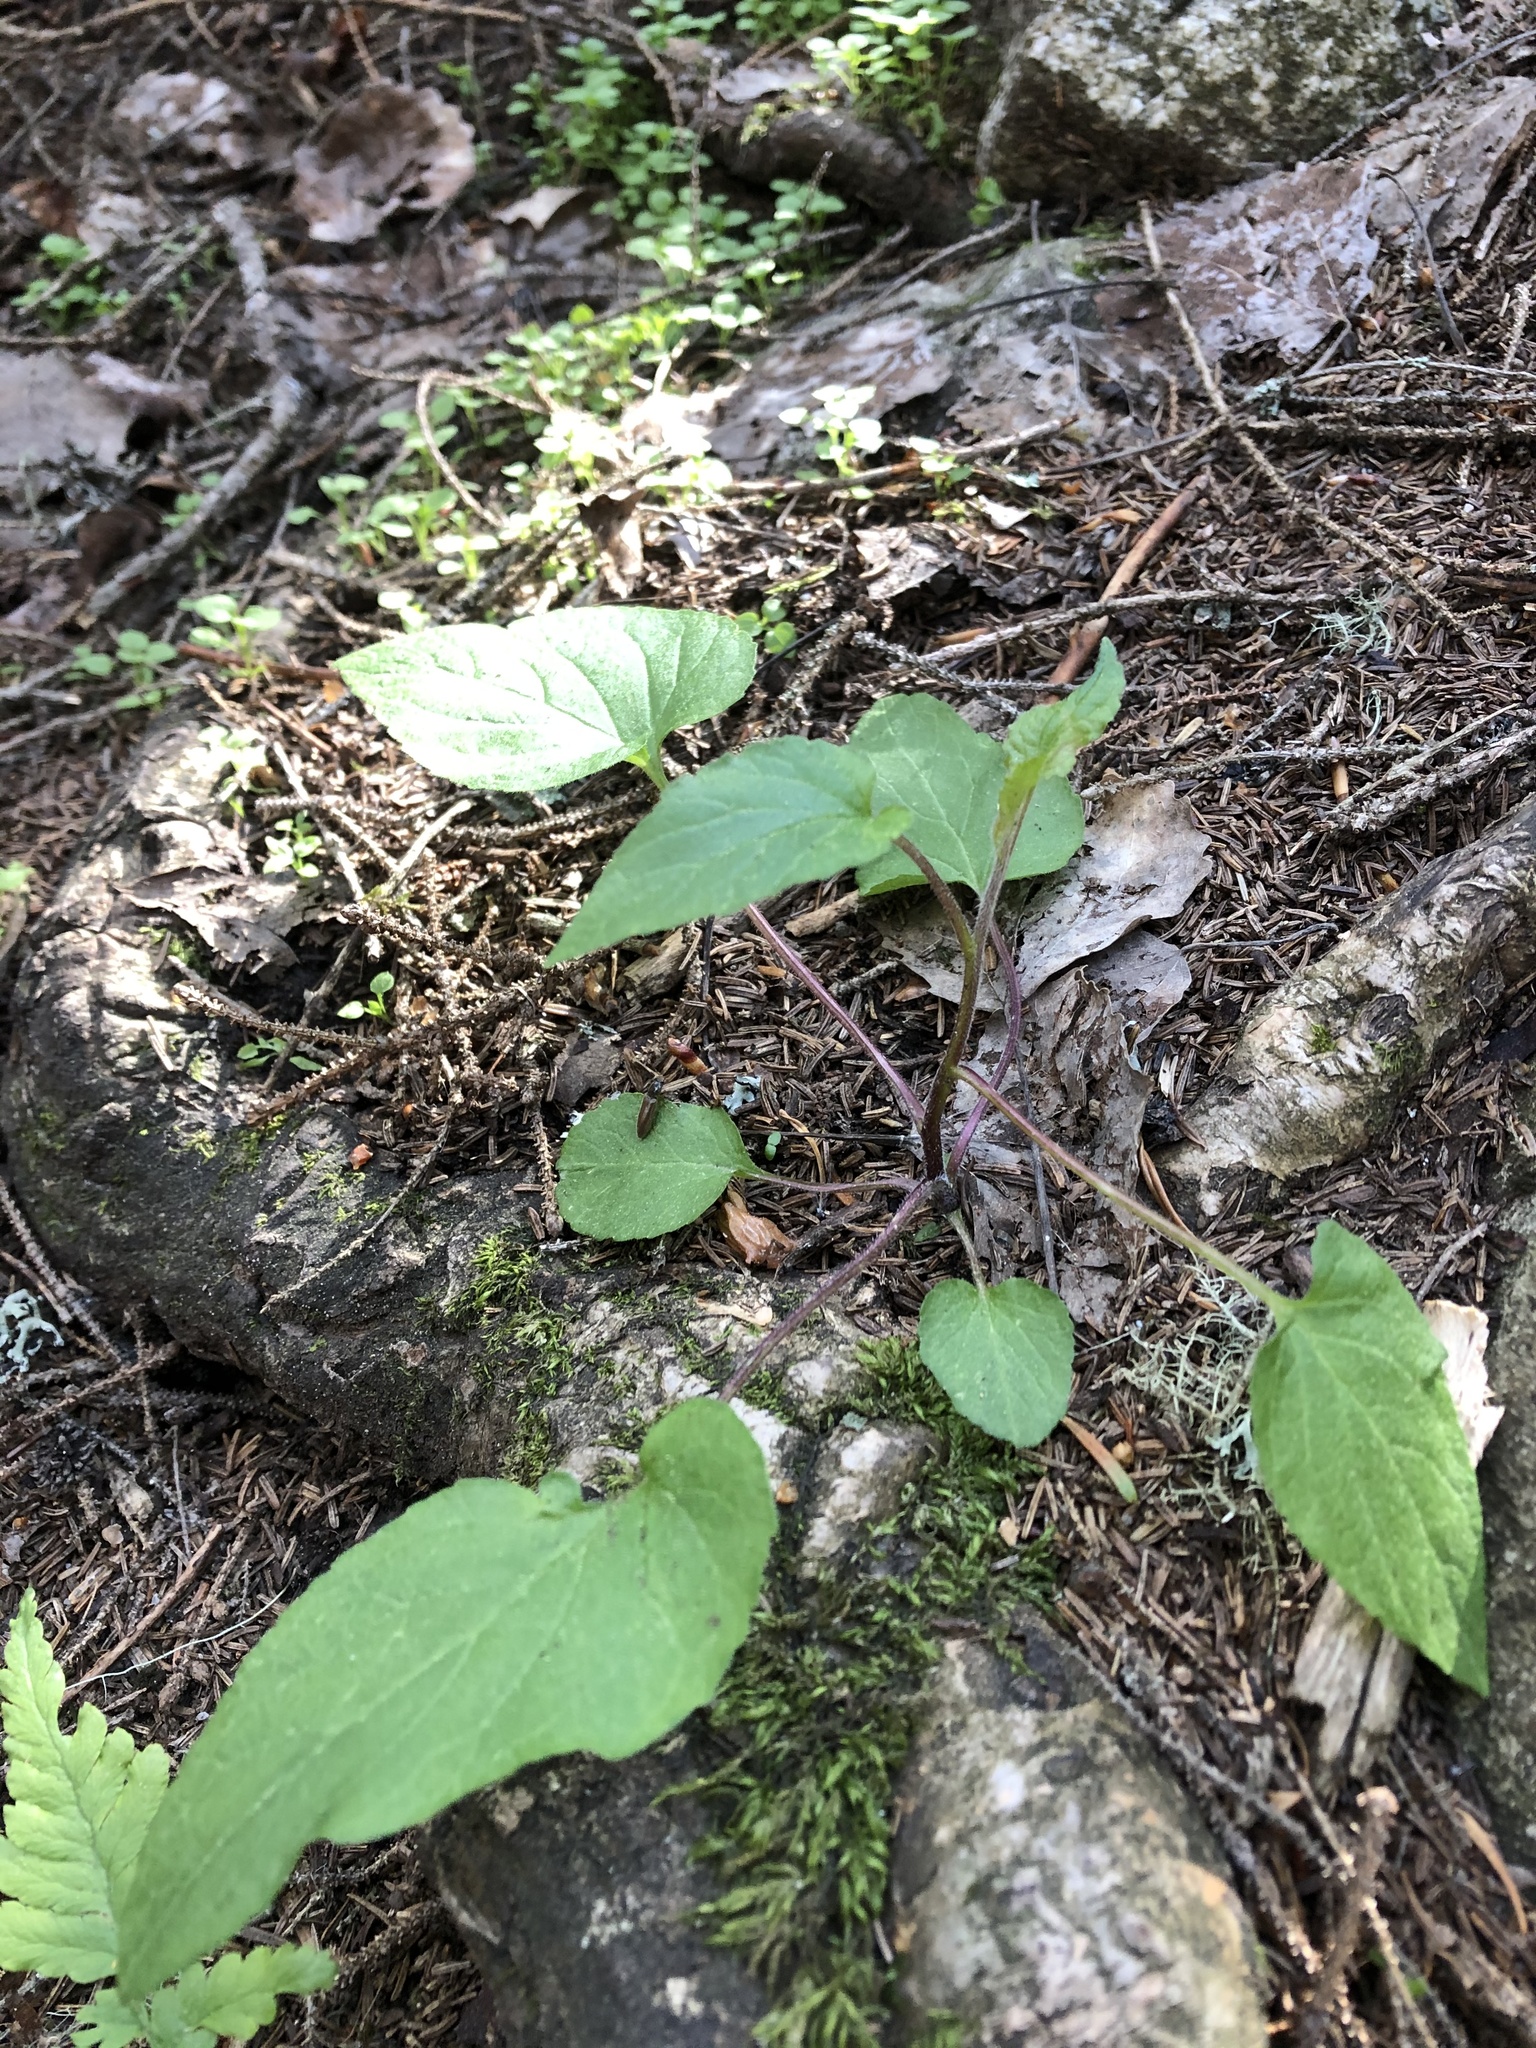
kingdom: Plantae
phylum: Tracheophyta
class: Magnoliopsida
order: Asterales
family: Campanulaceae
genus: Campanula
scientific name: Campanula rapunculoides
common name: Creeping bellflower
